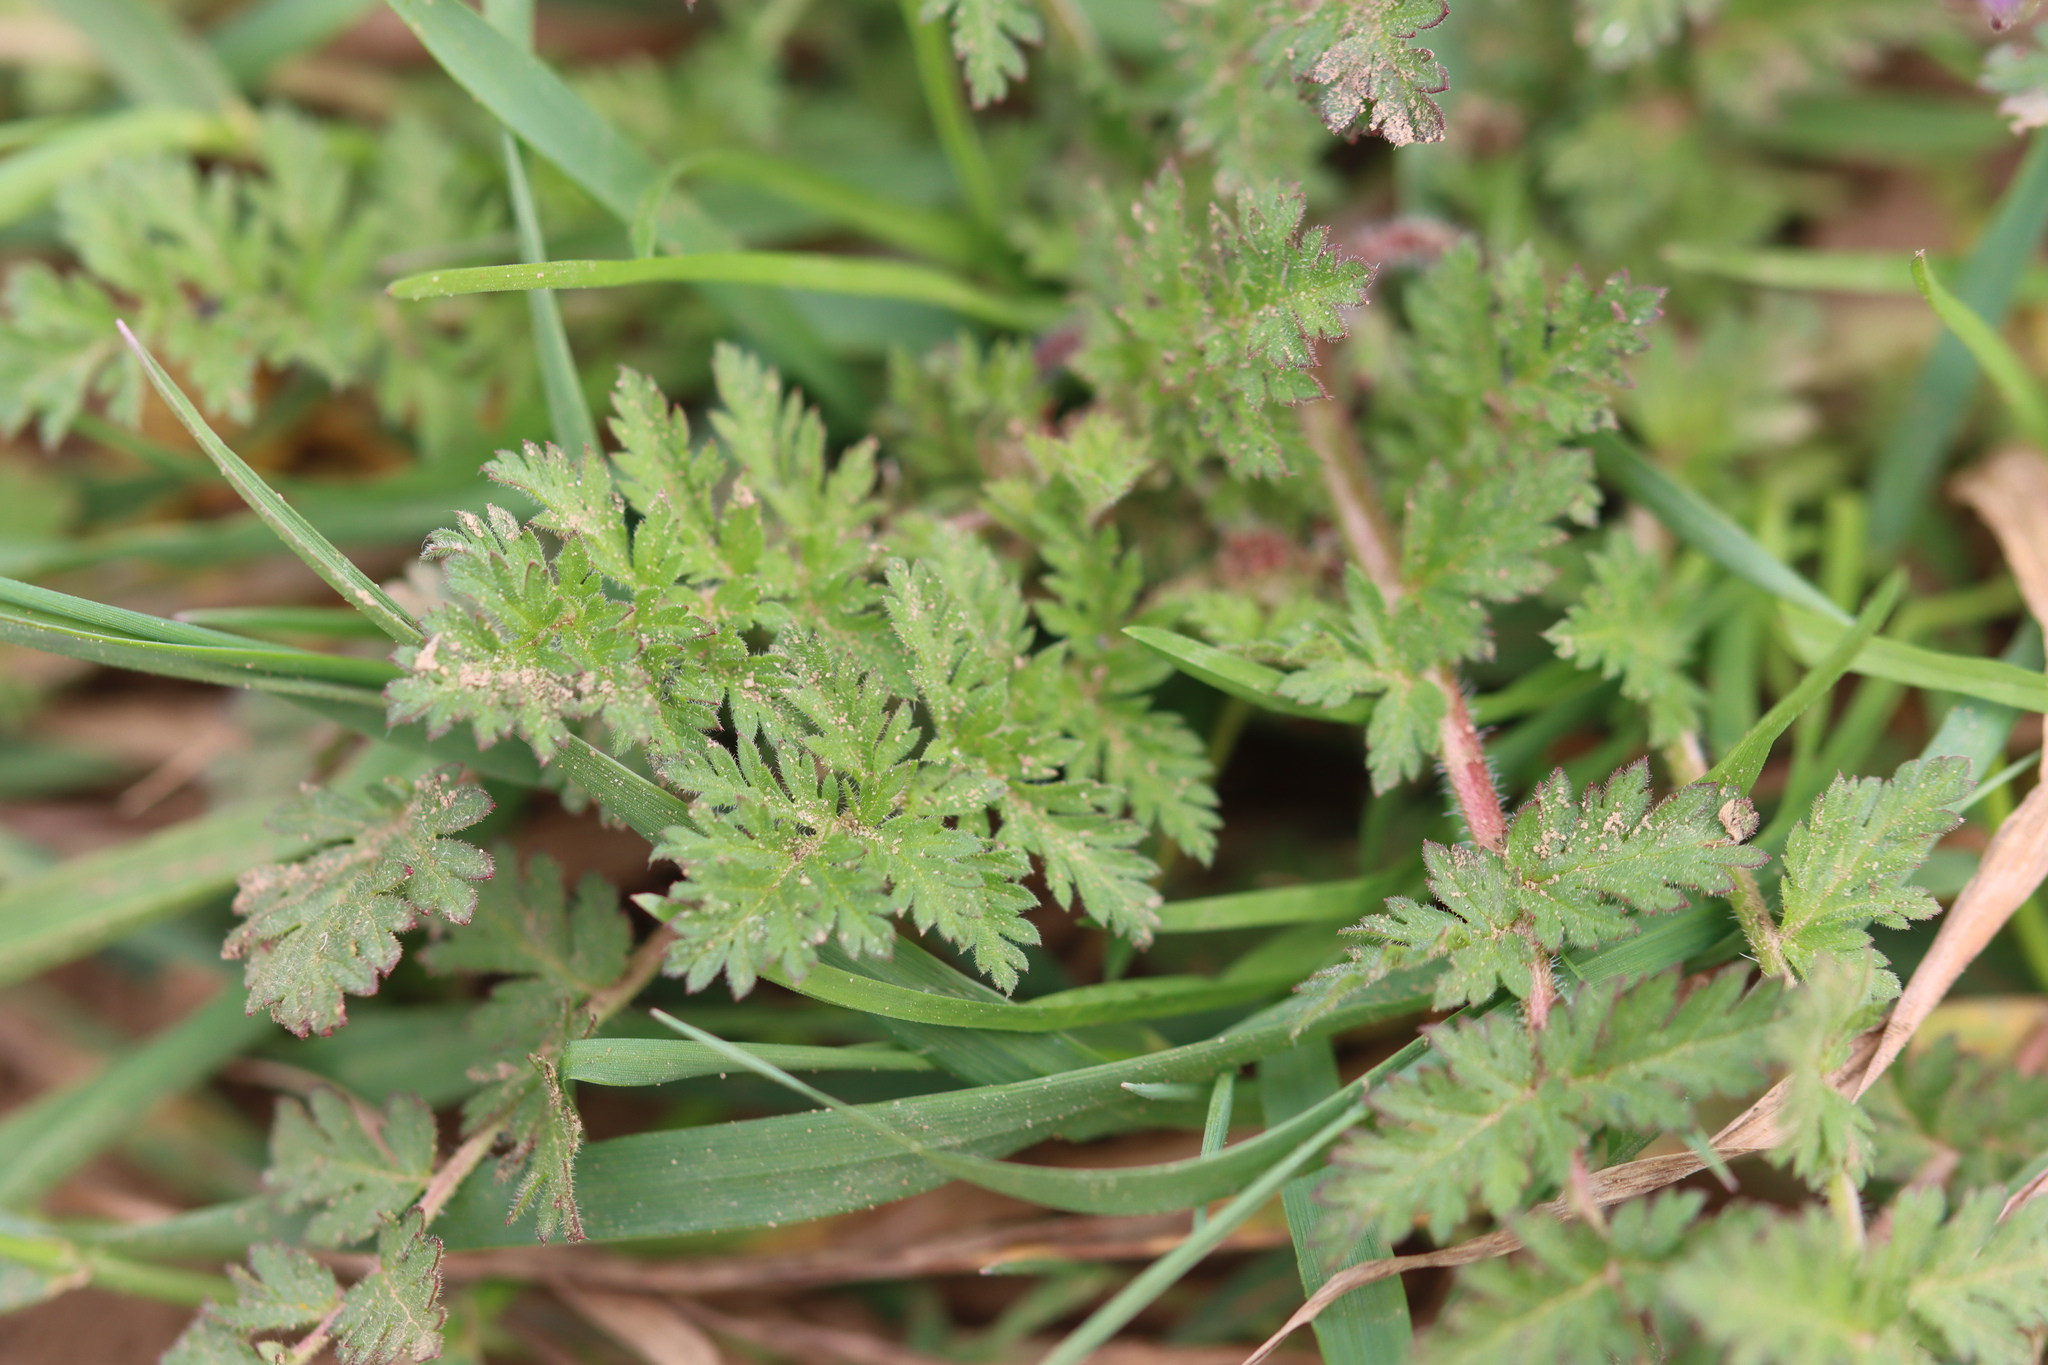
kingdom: Plantae
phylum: Tracheophyta
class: Magnoliopsida
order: Geraniales
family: Geraniaceae
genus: Erodium
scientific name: Erodium cicutarium
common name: Common stork's-bill
